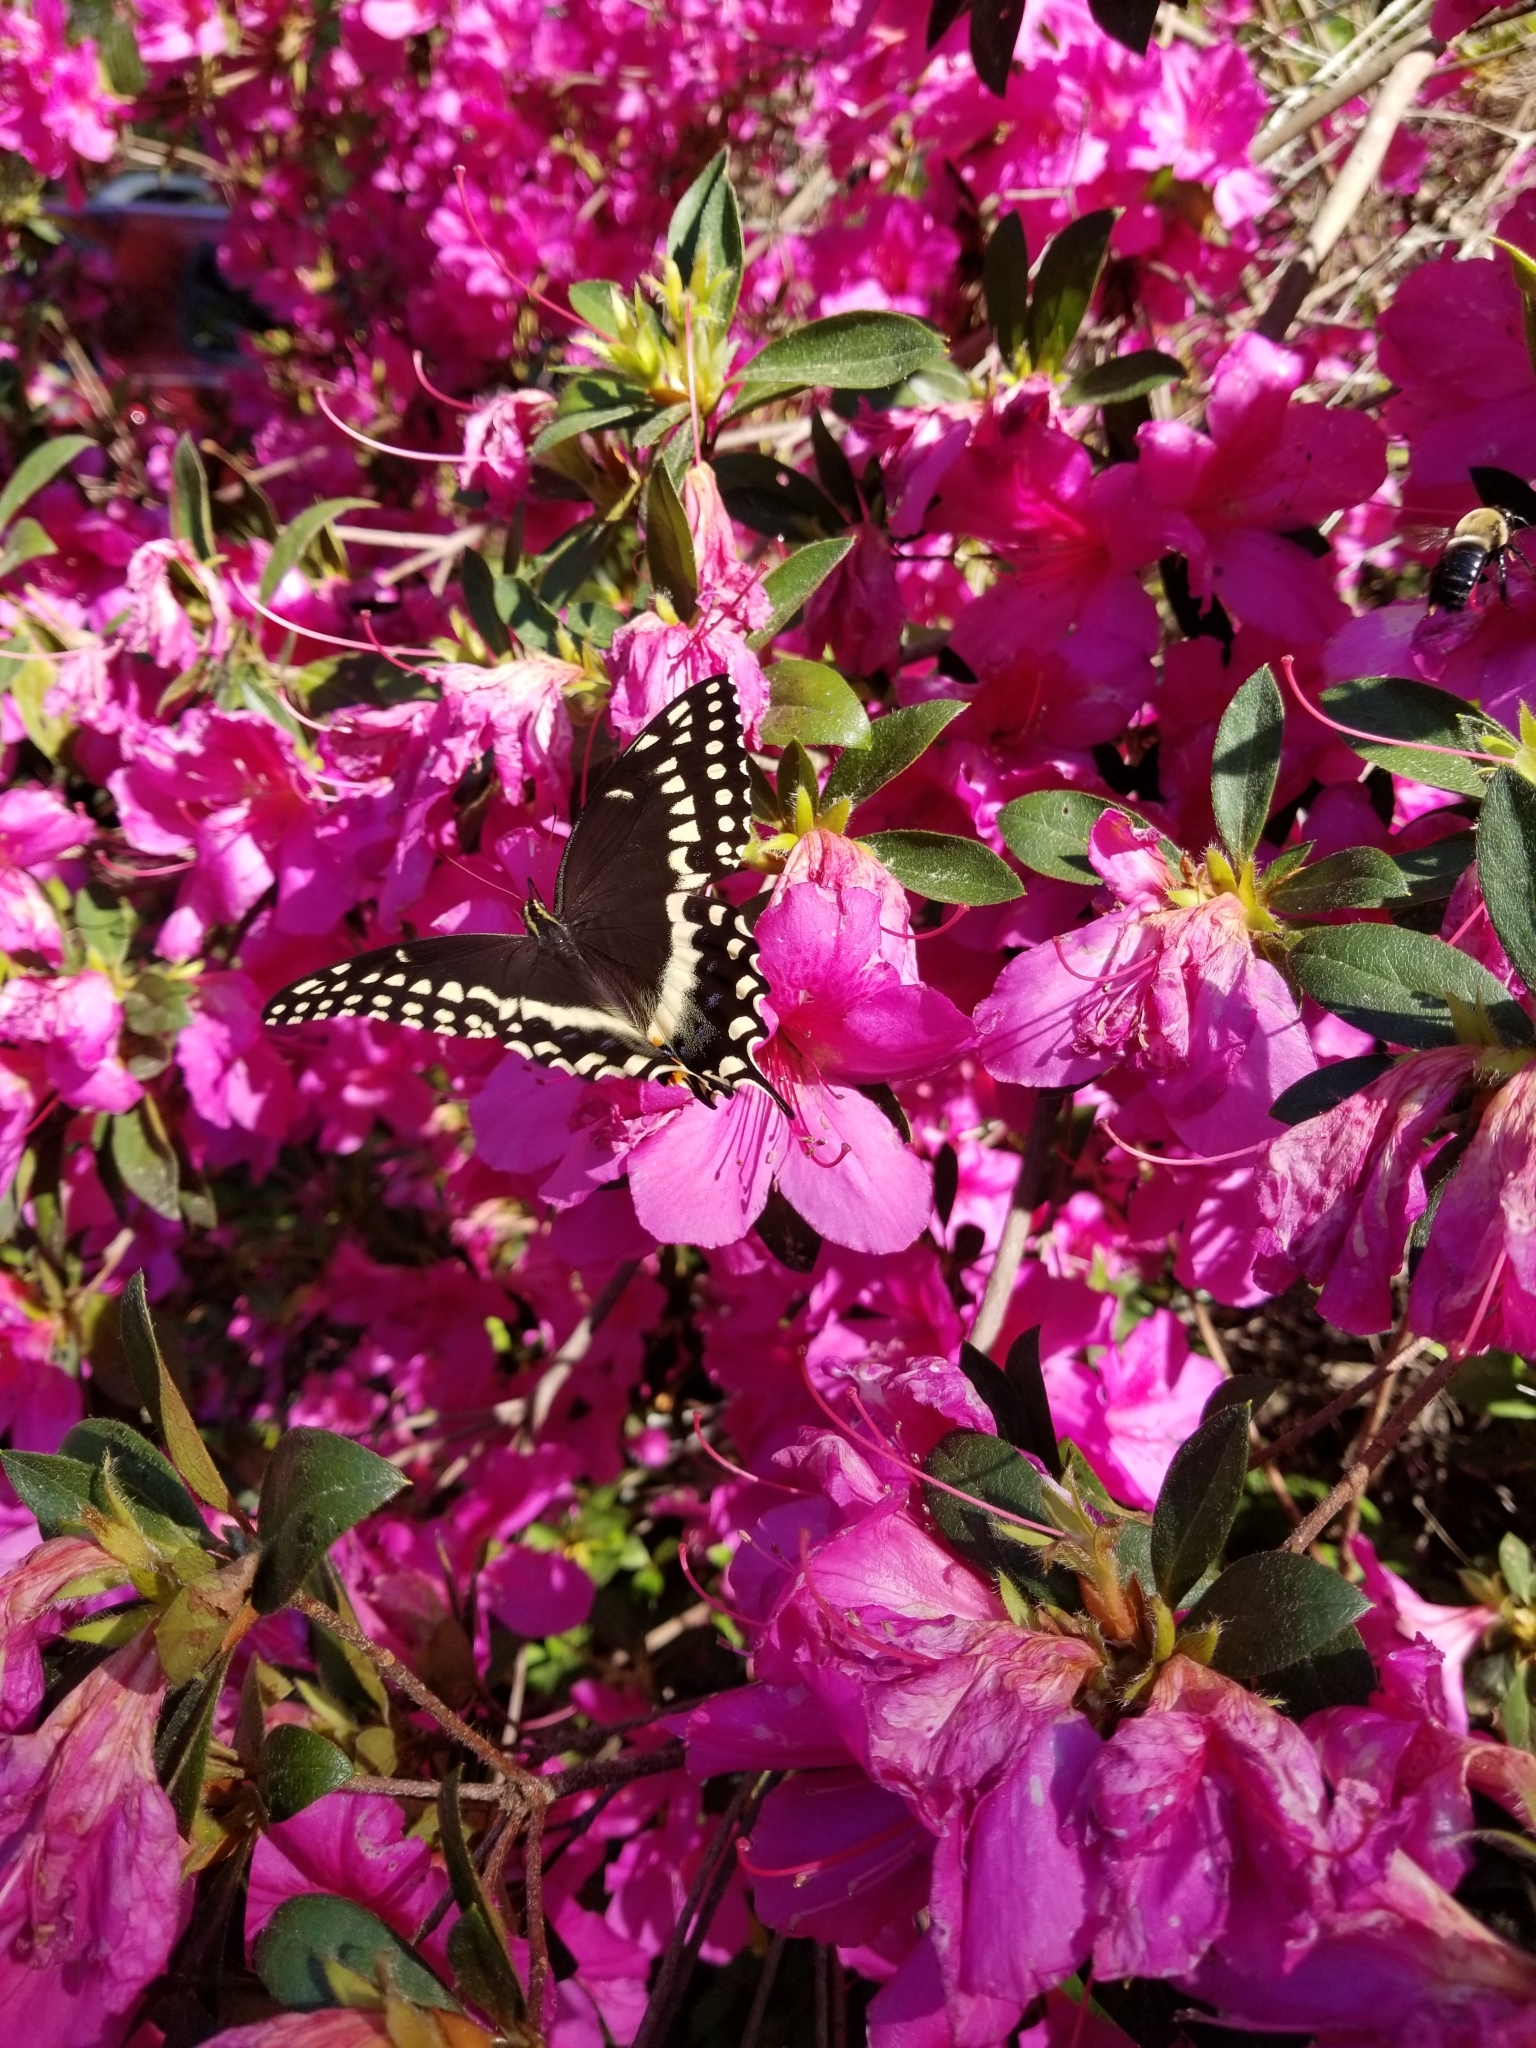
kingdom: Animalia
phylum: Arthropoda
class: Insecta
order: Lepidoptera
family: Papilionidae
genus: Papilio
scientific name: Papilio palamedes
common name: Palamedes swallowtail
